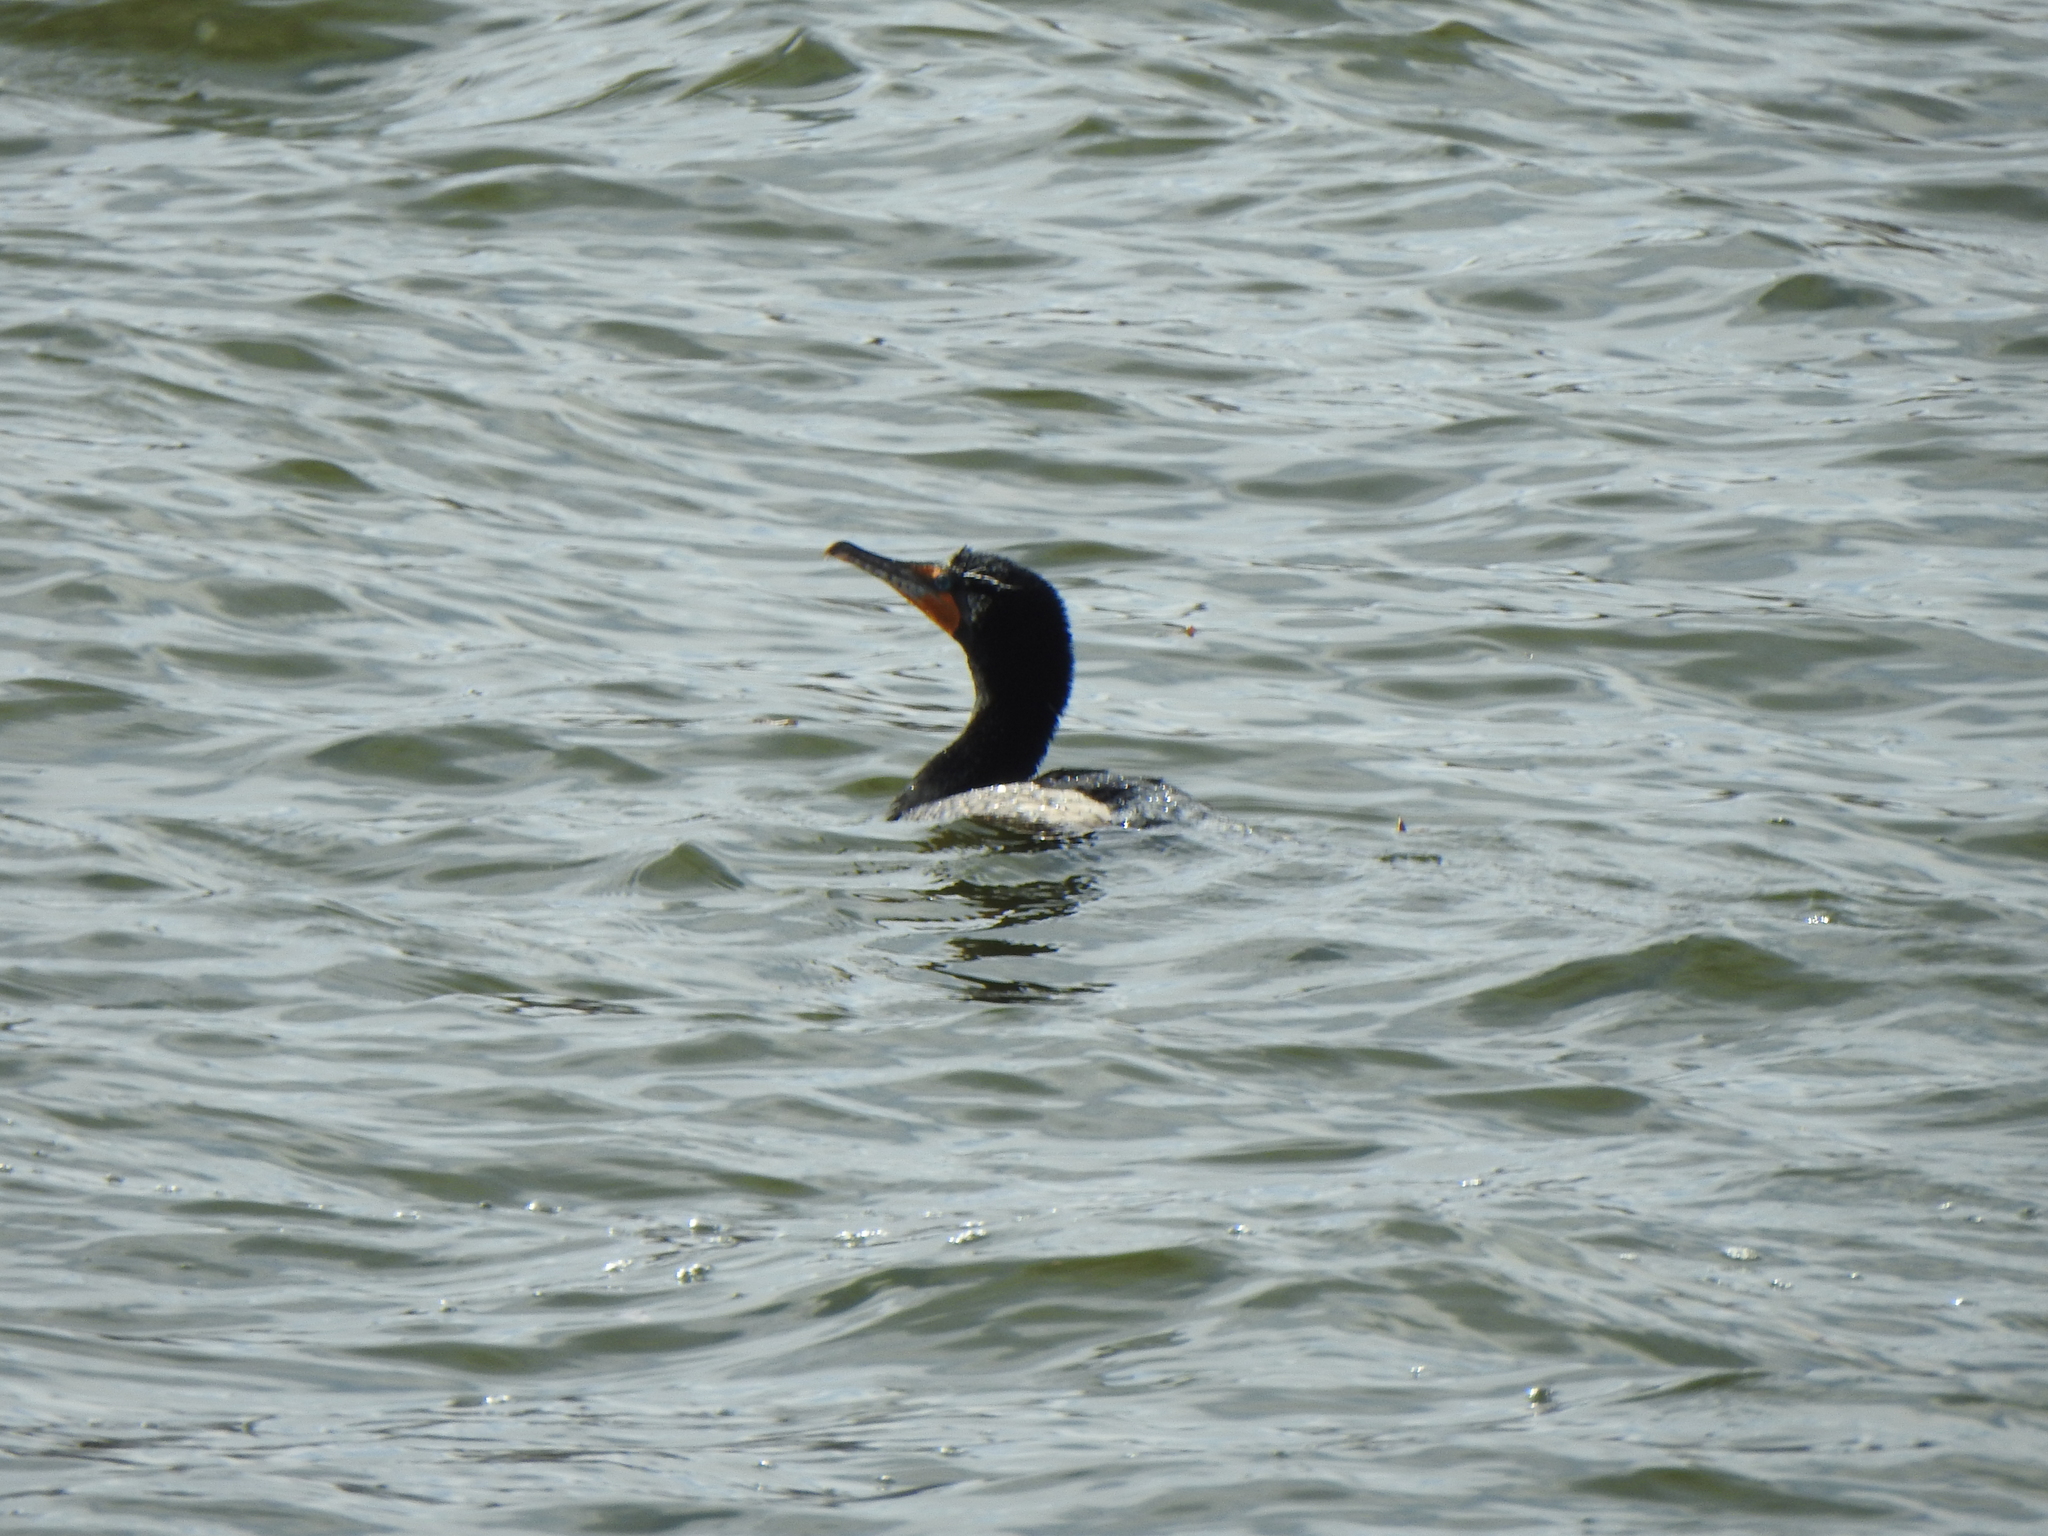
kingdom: Animalia
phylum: Chordata
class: Aves
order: Suliformes
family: Phalacrocoracidae
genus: Phalacrocorax
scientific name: Phalacrocorax auritus
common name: Double-crested cormorant
